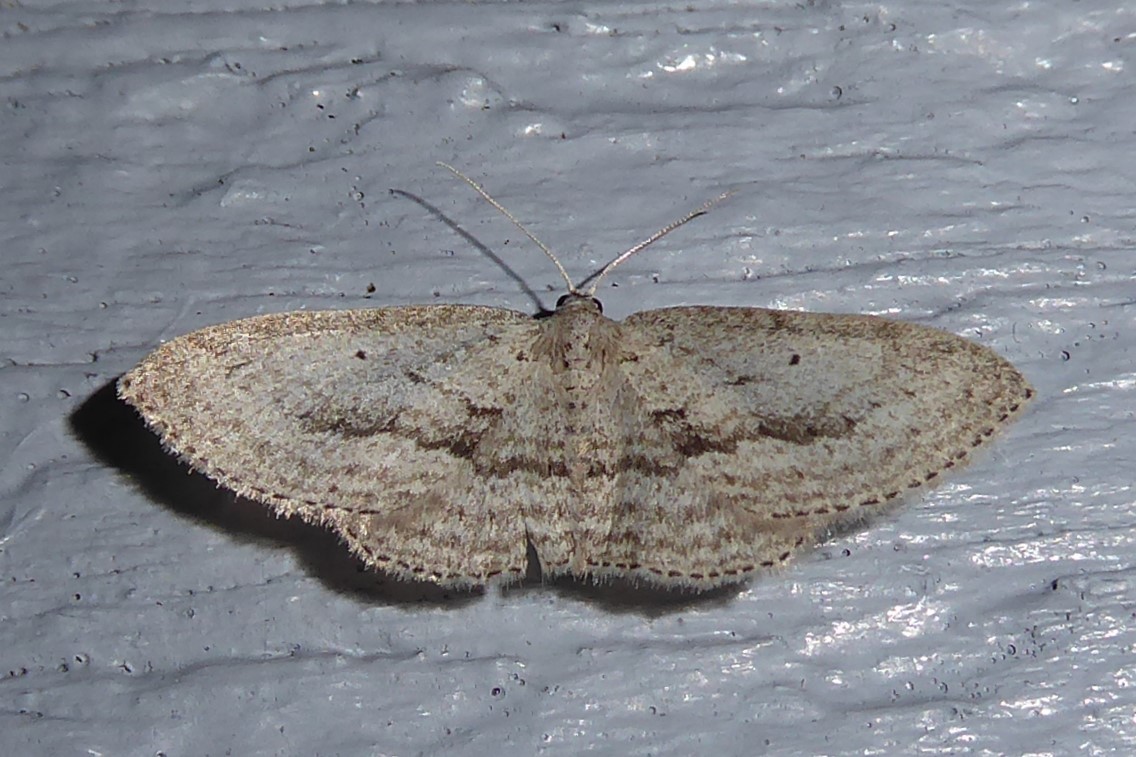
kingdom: Animalia
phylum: Arthropoda
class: Insecta
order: Lepidoptera
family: Geometridae
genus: Poecilasthena
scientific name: Poecilasthena schistaria
